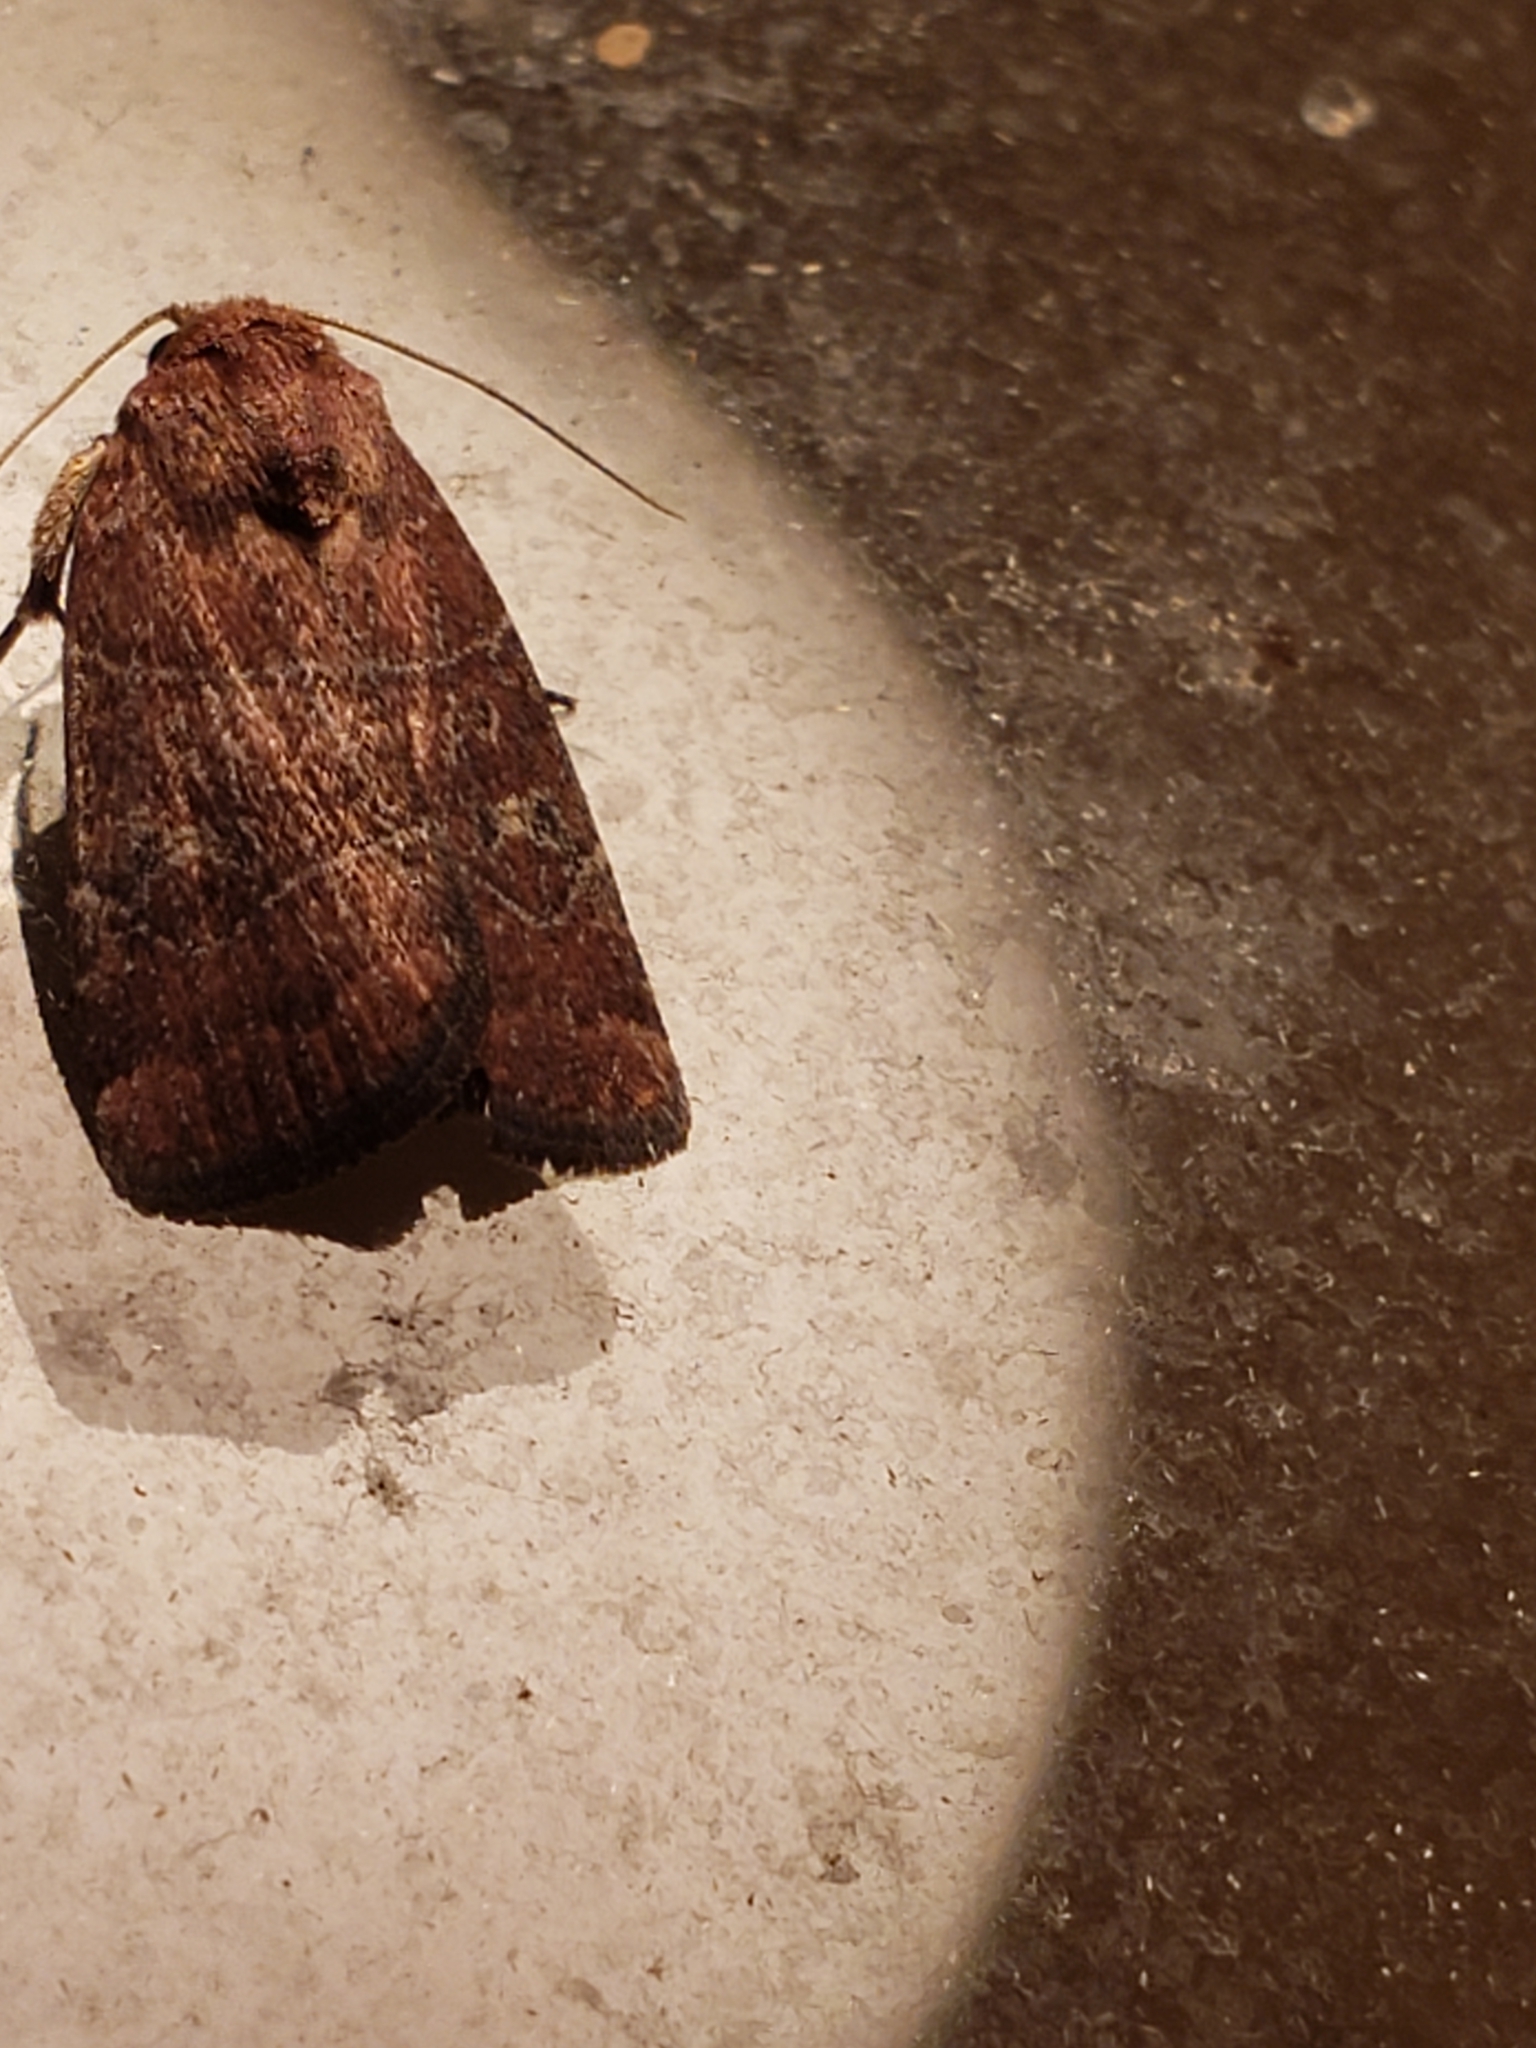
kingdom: Animalia
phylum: Arthropoda
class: Insecta
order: Lepidoptera
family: Noctuidae
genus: Elaphria
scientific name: Elaphria grata
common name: Grateful midget moth
